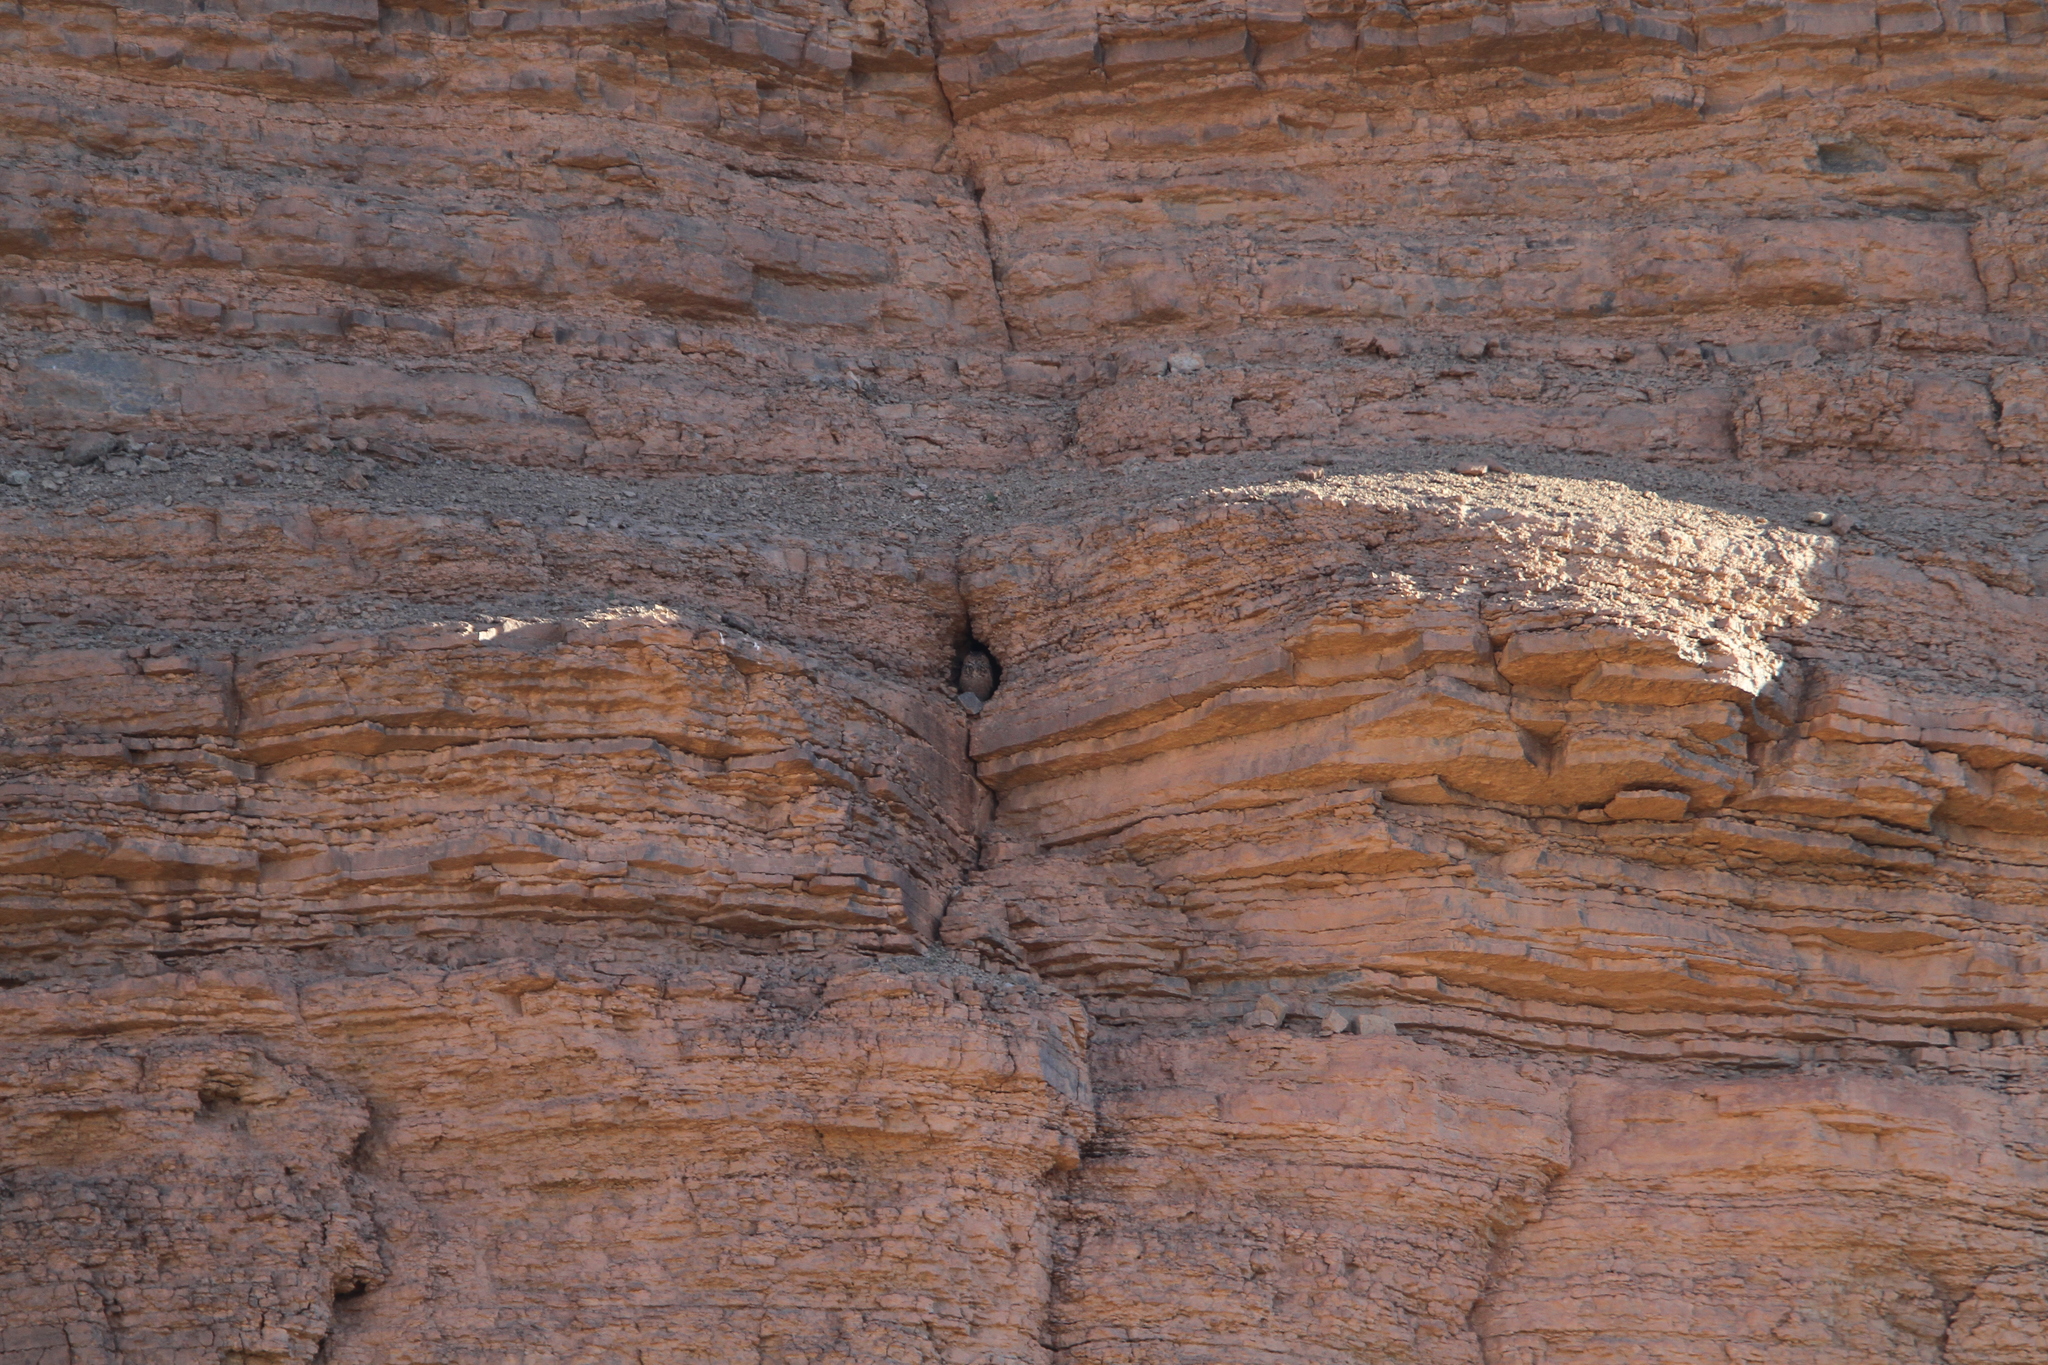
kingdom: Animalia
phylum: Chordata
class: Aves
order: Strigiformes
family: Strigidae
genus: Bubo
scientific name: Bubo ascalaphus
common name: Pharaoh eagle-owl
